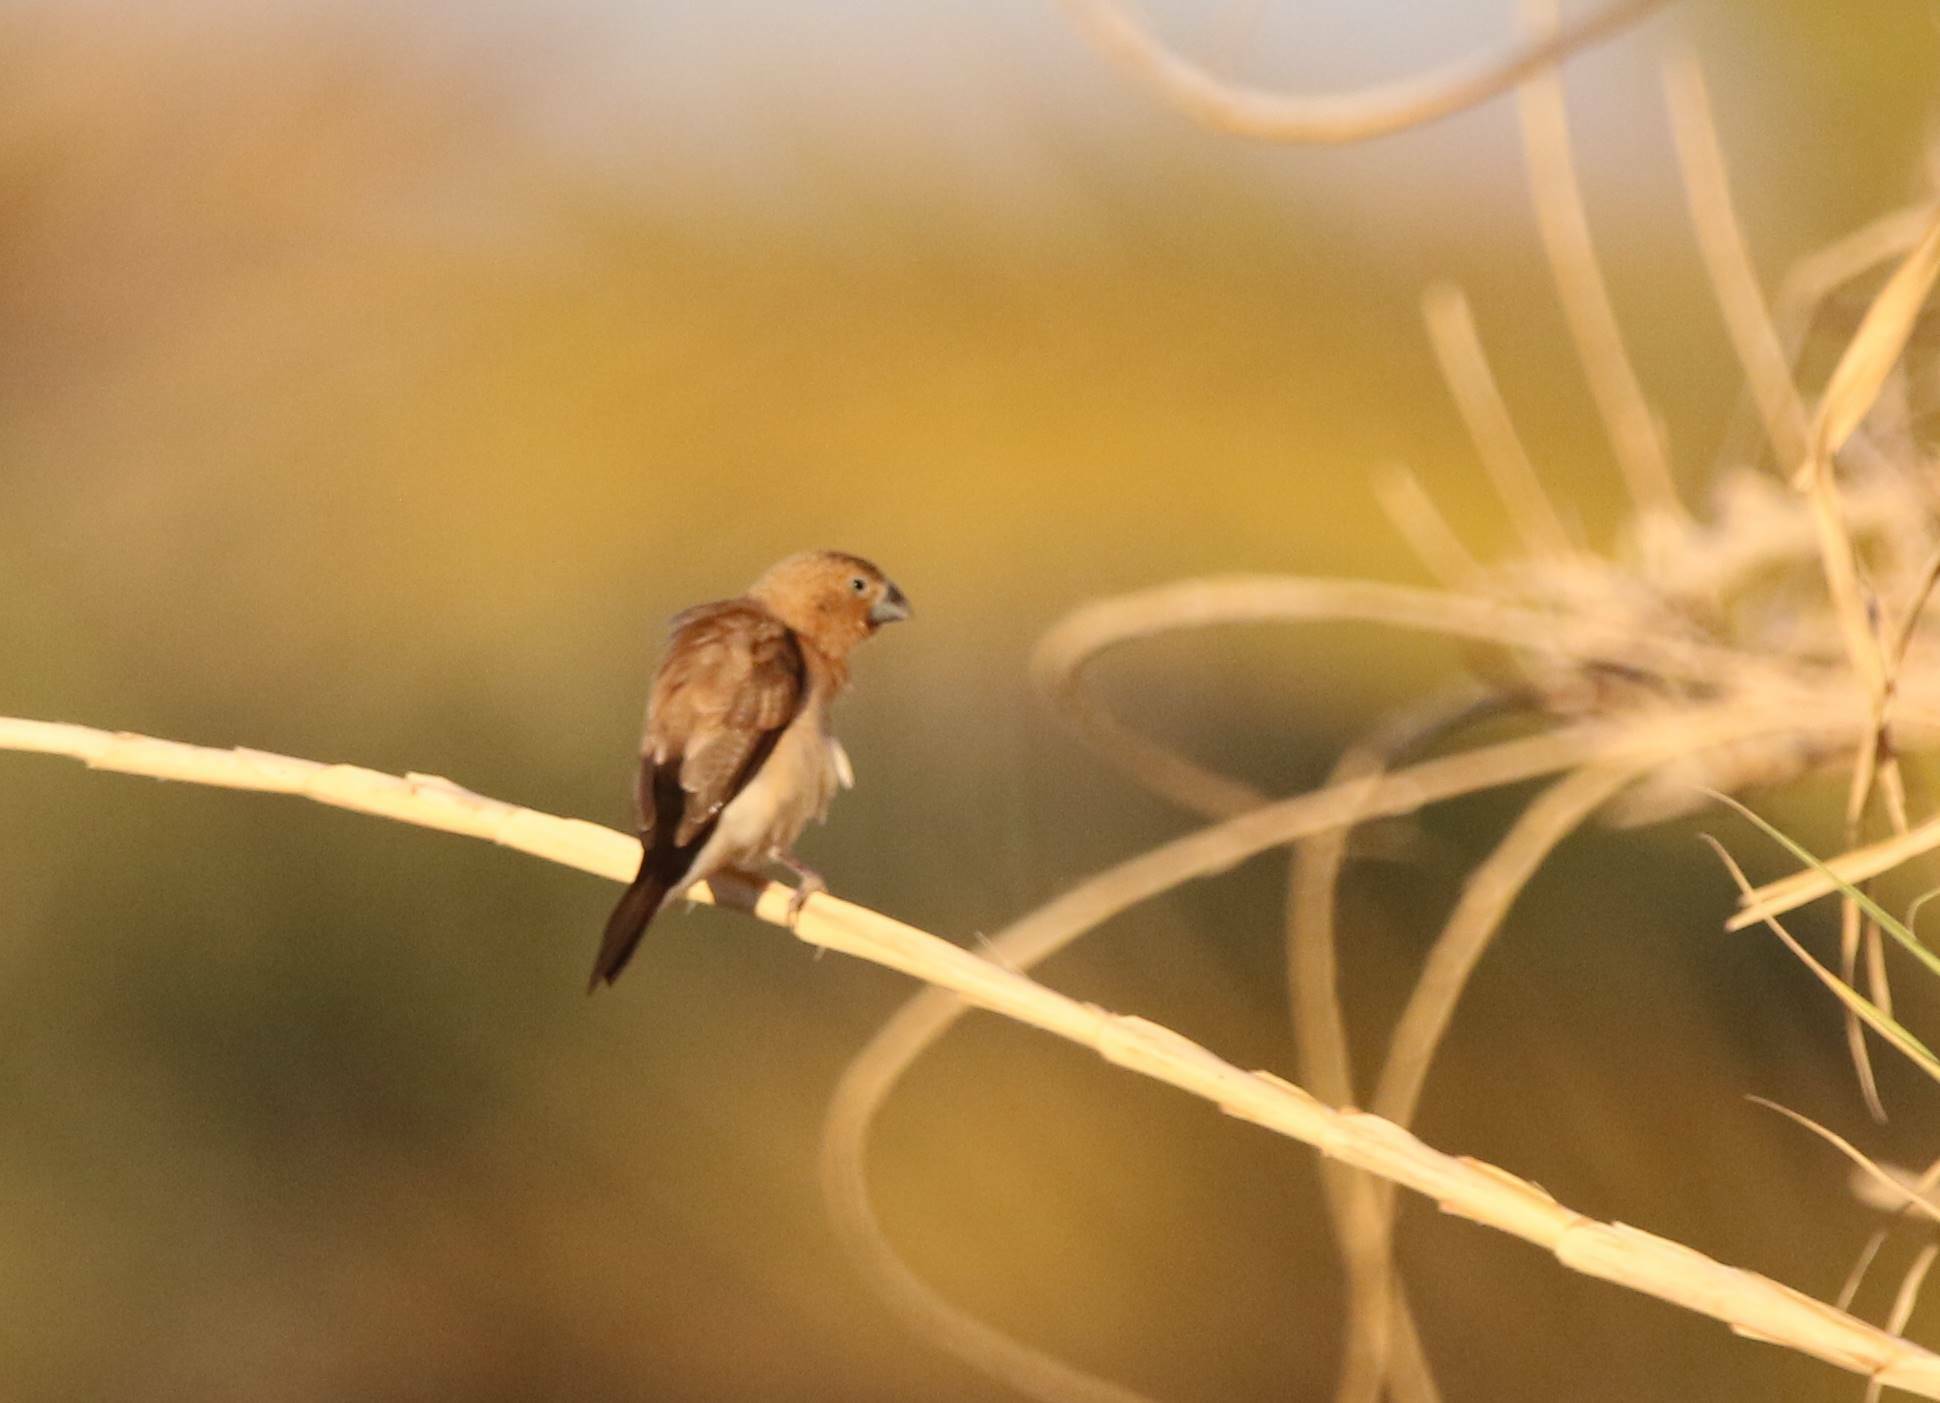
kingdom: Animalia
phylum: Chordata
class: Aves
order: Passeriformes
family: Estrildidae
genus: Euodice
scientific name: Euodice cantans
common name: African silverbill
